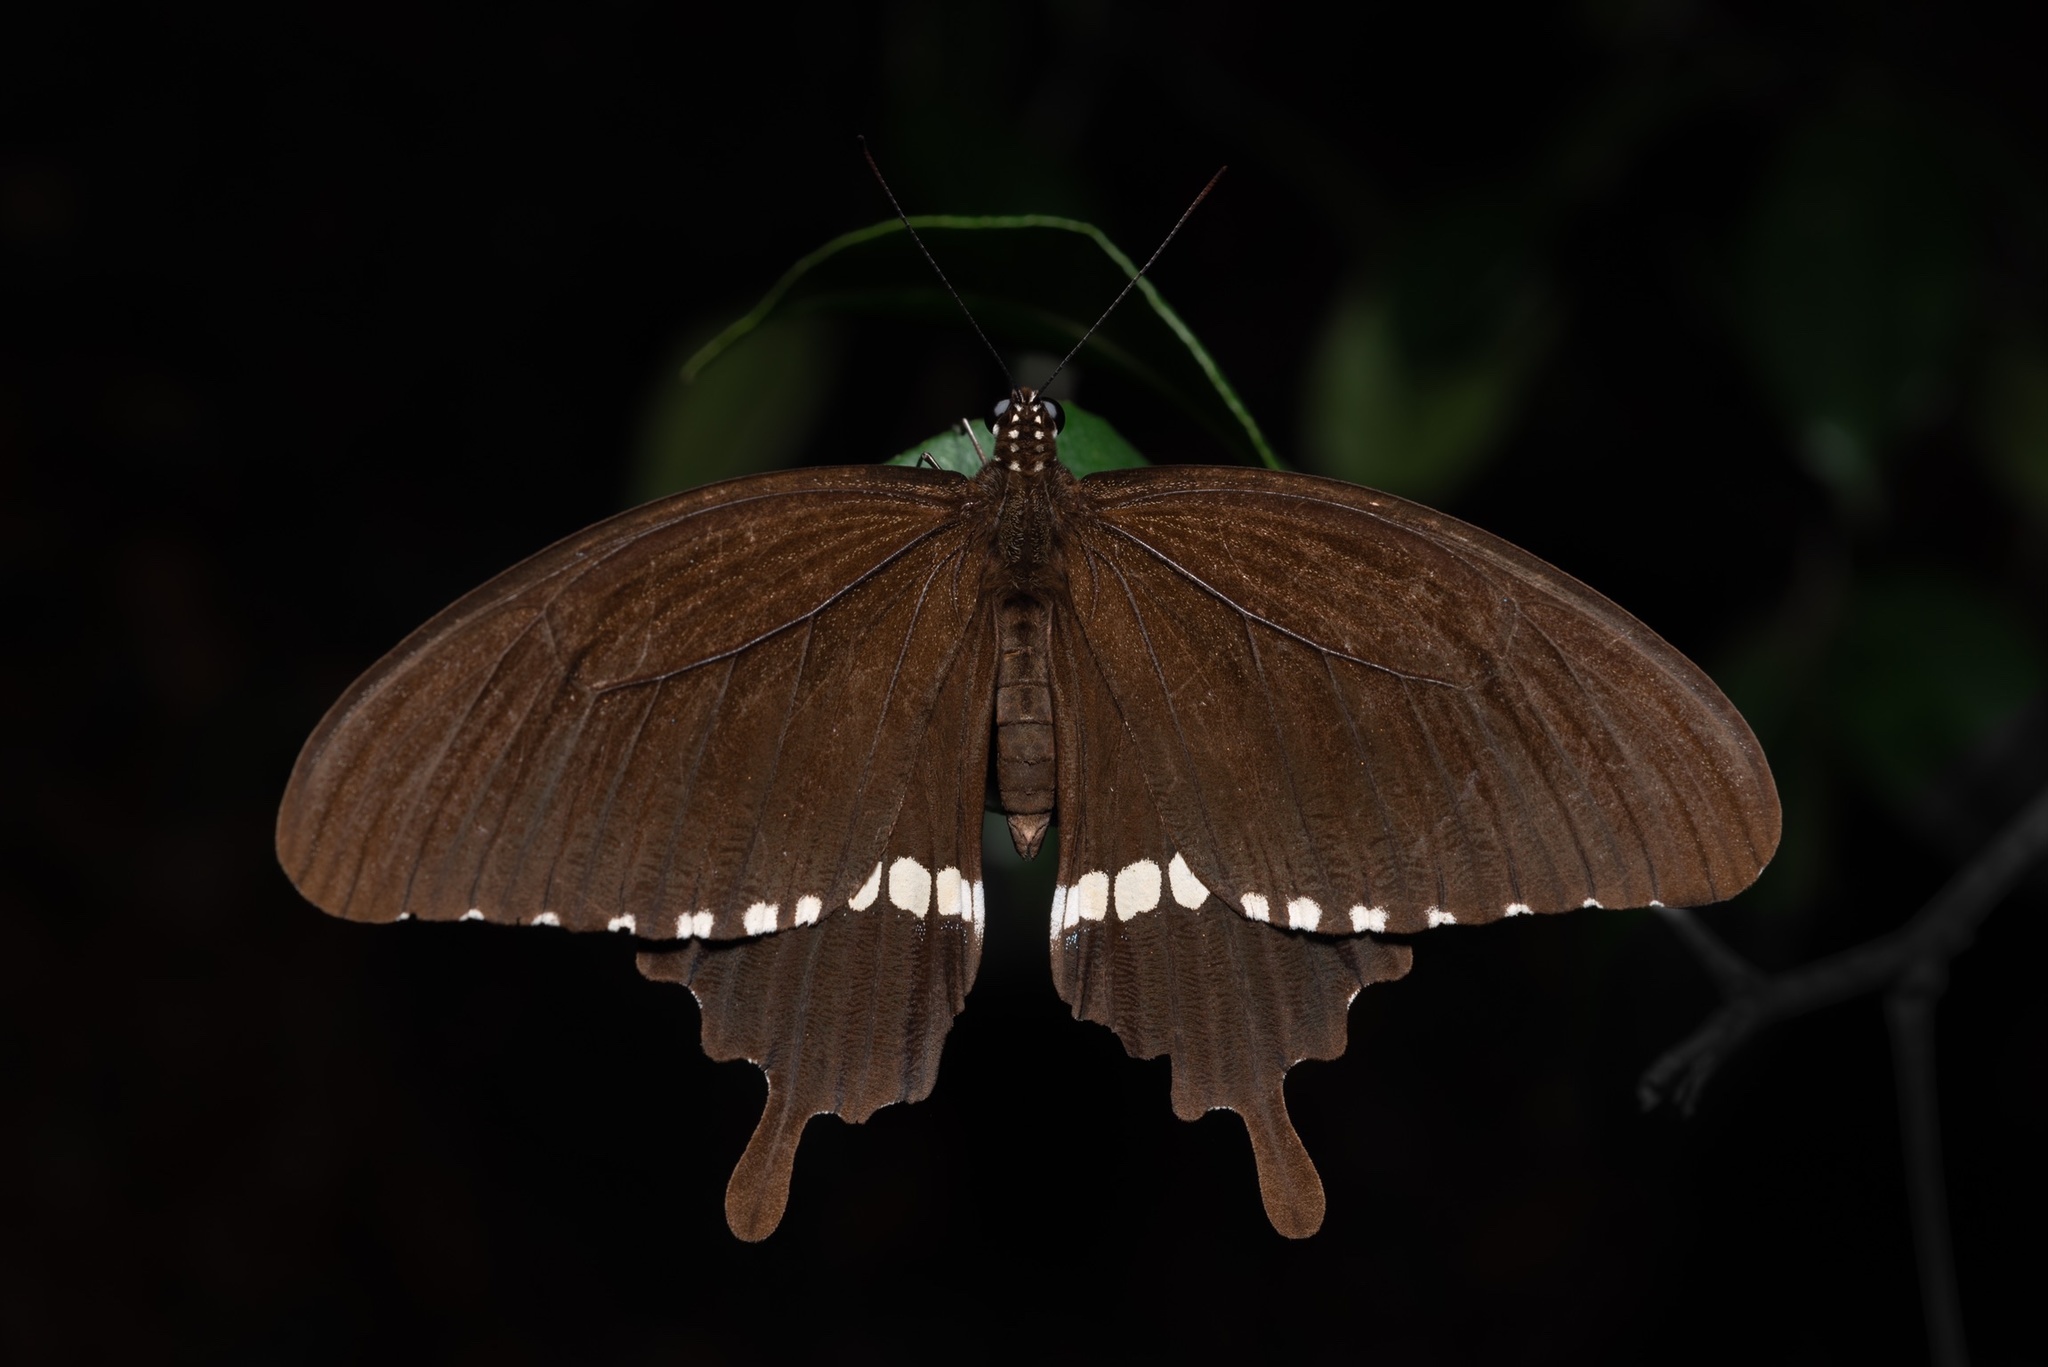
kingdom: Animalia
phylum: Arthropoda
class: Insecta
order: Lepidoptera
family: Papilionidae
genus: Papilio
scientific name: Papilio polytes
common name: Common mormon
